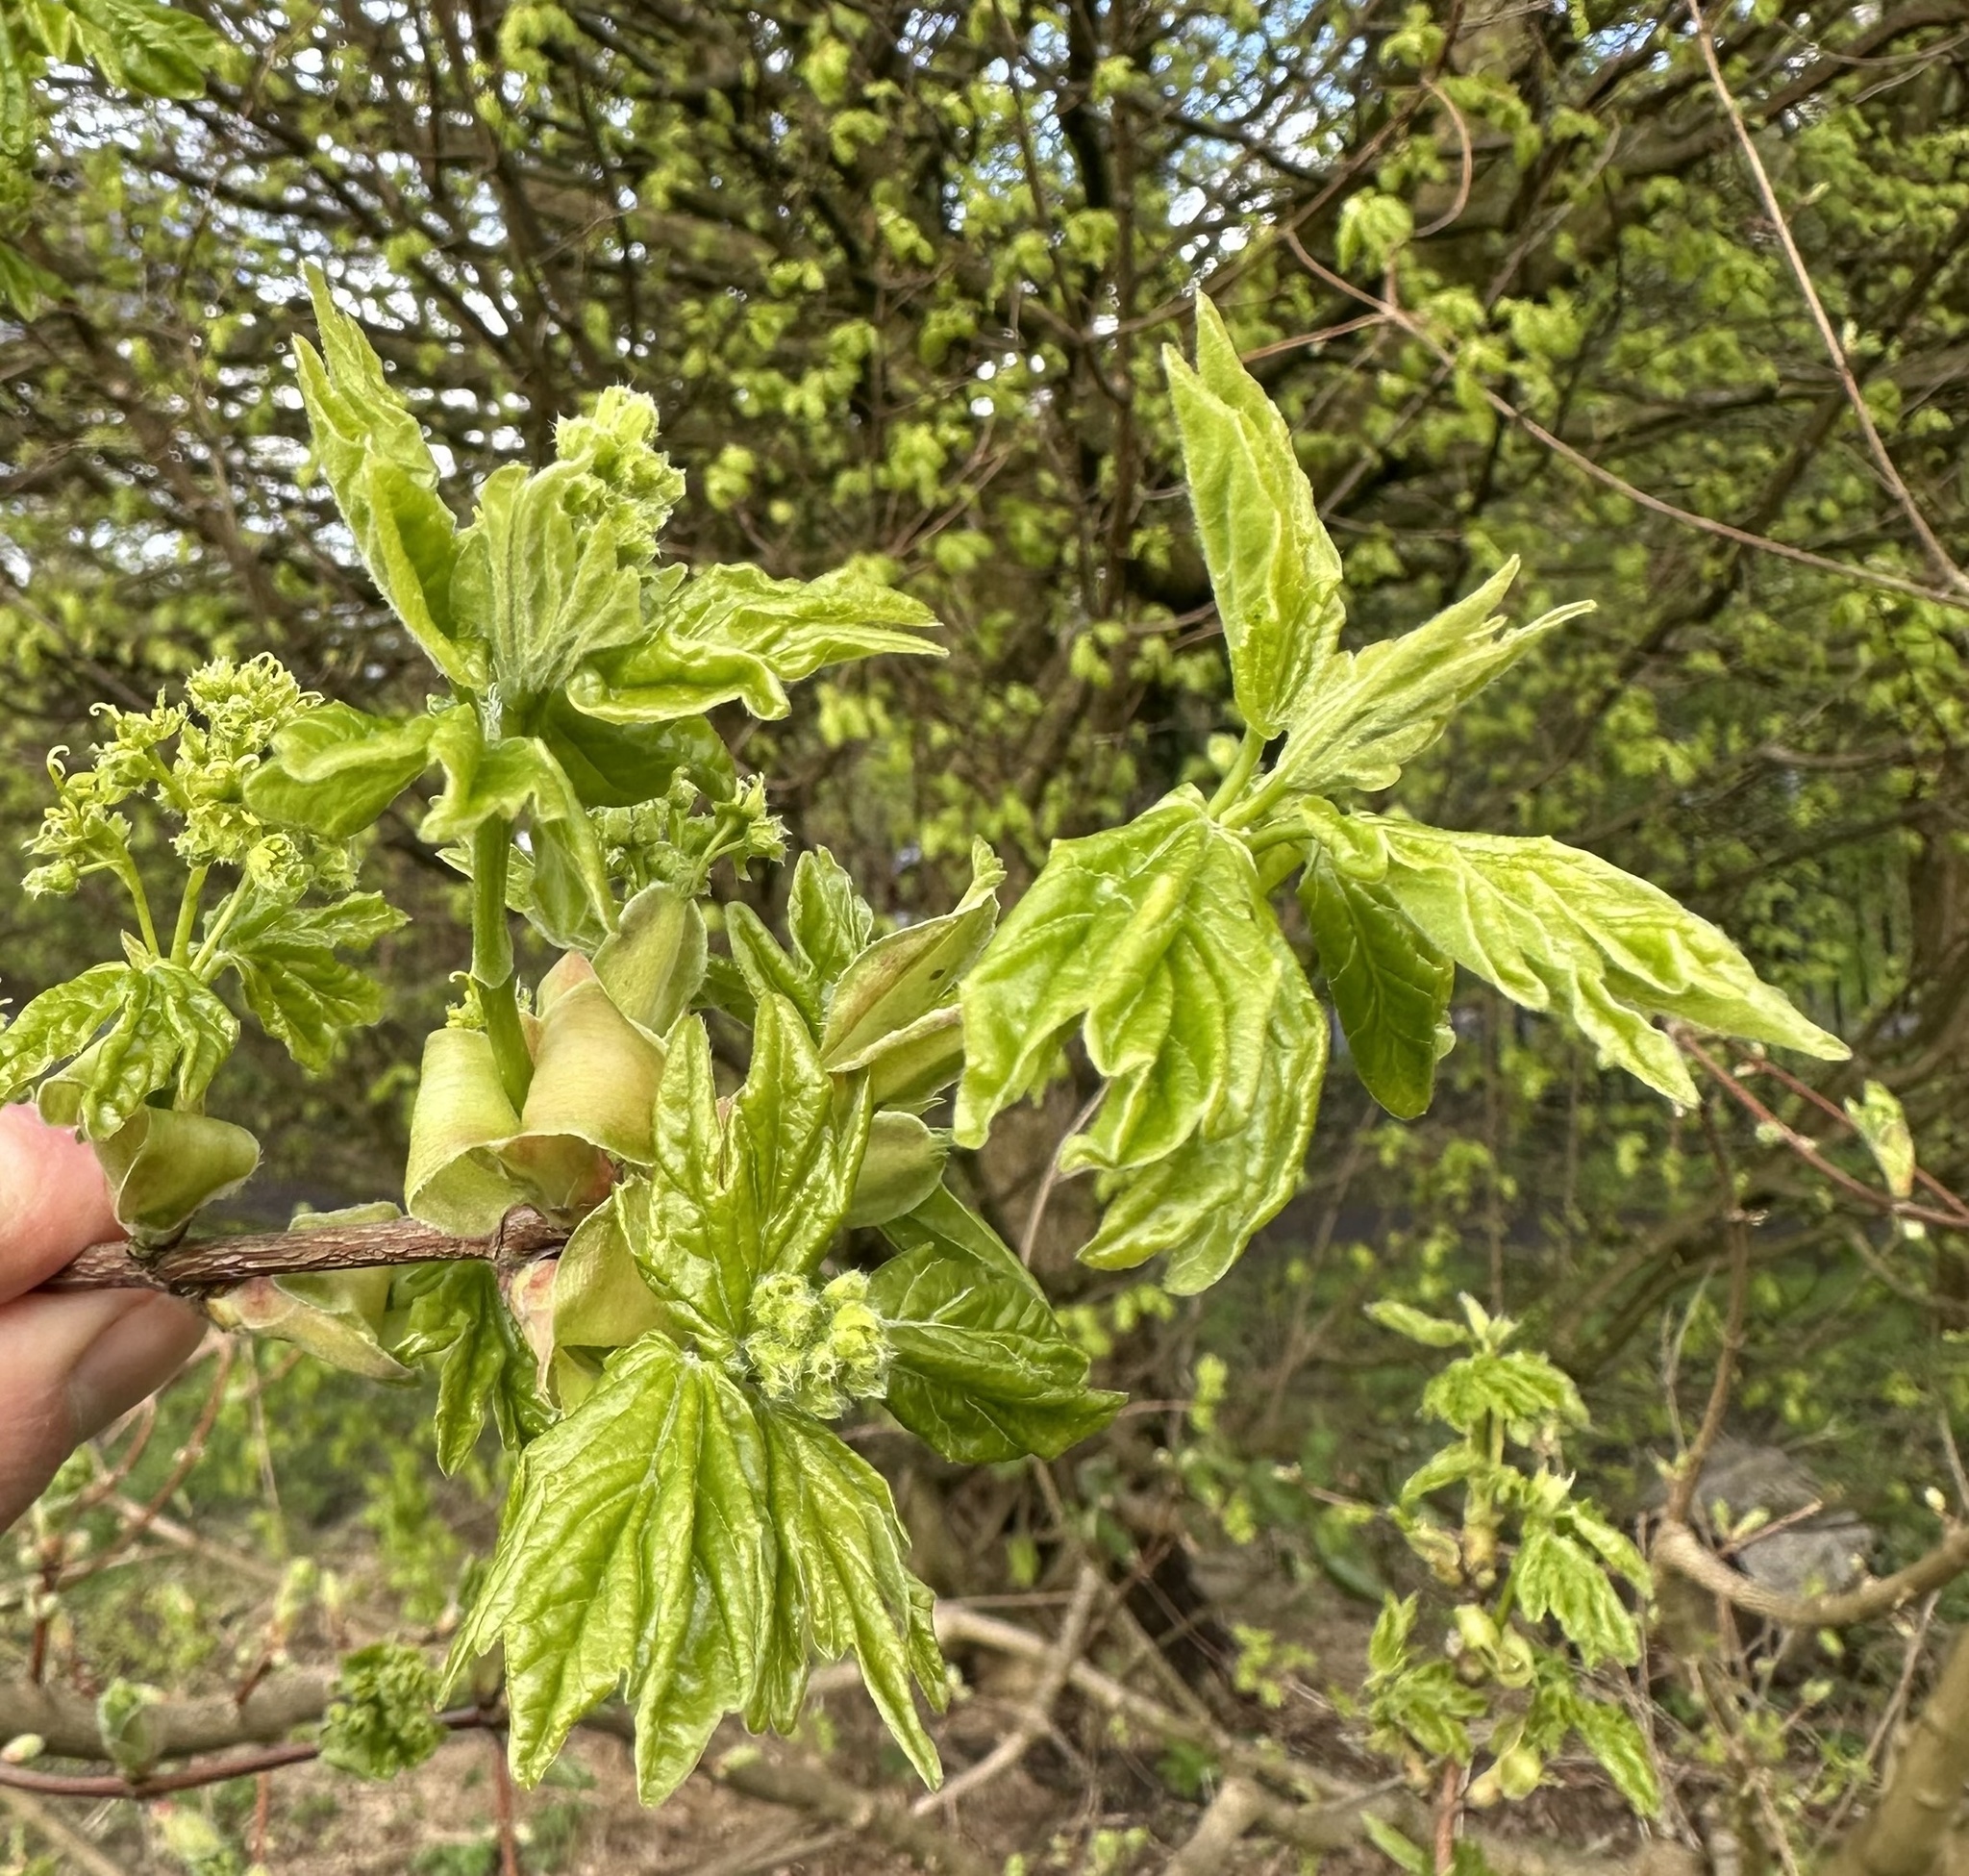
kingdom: Plantae
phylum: Tracheophyta
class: Magnoliopsida
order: Sapindales
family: Sapindaceae
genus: Acer
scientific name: Acer campestre
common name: Field maple
